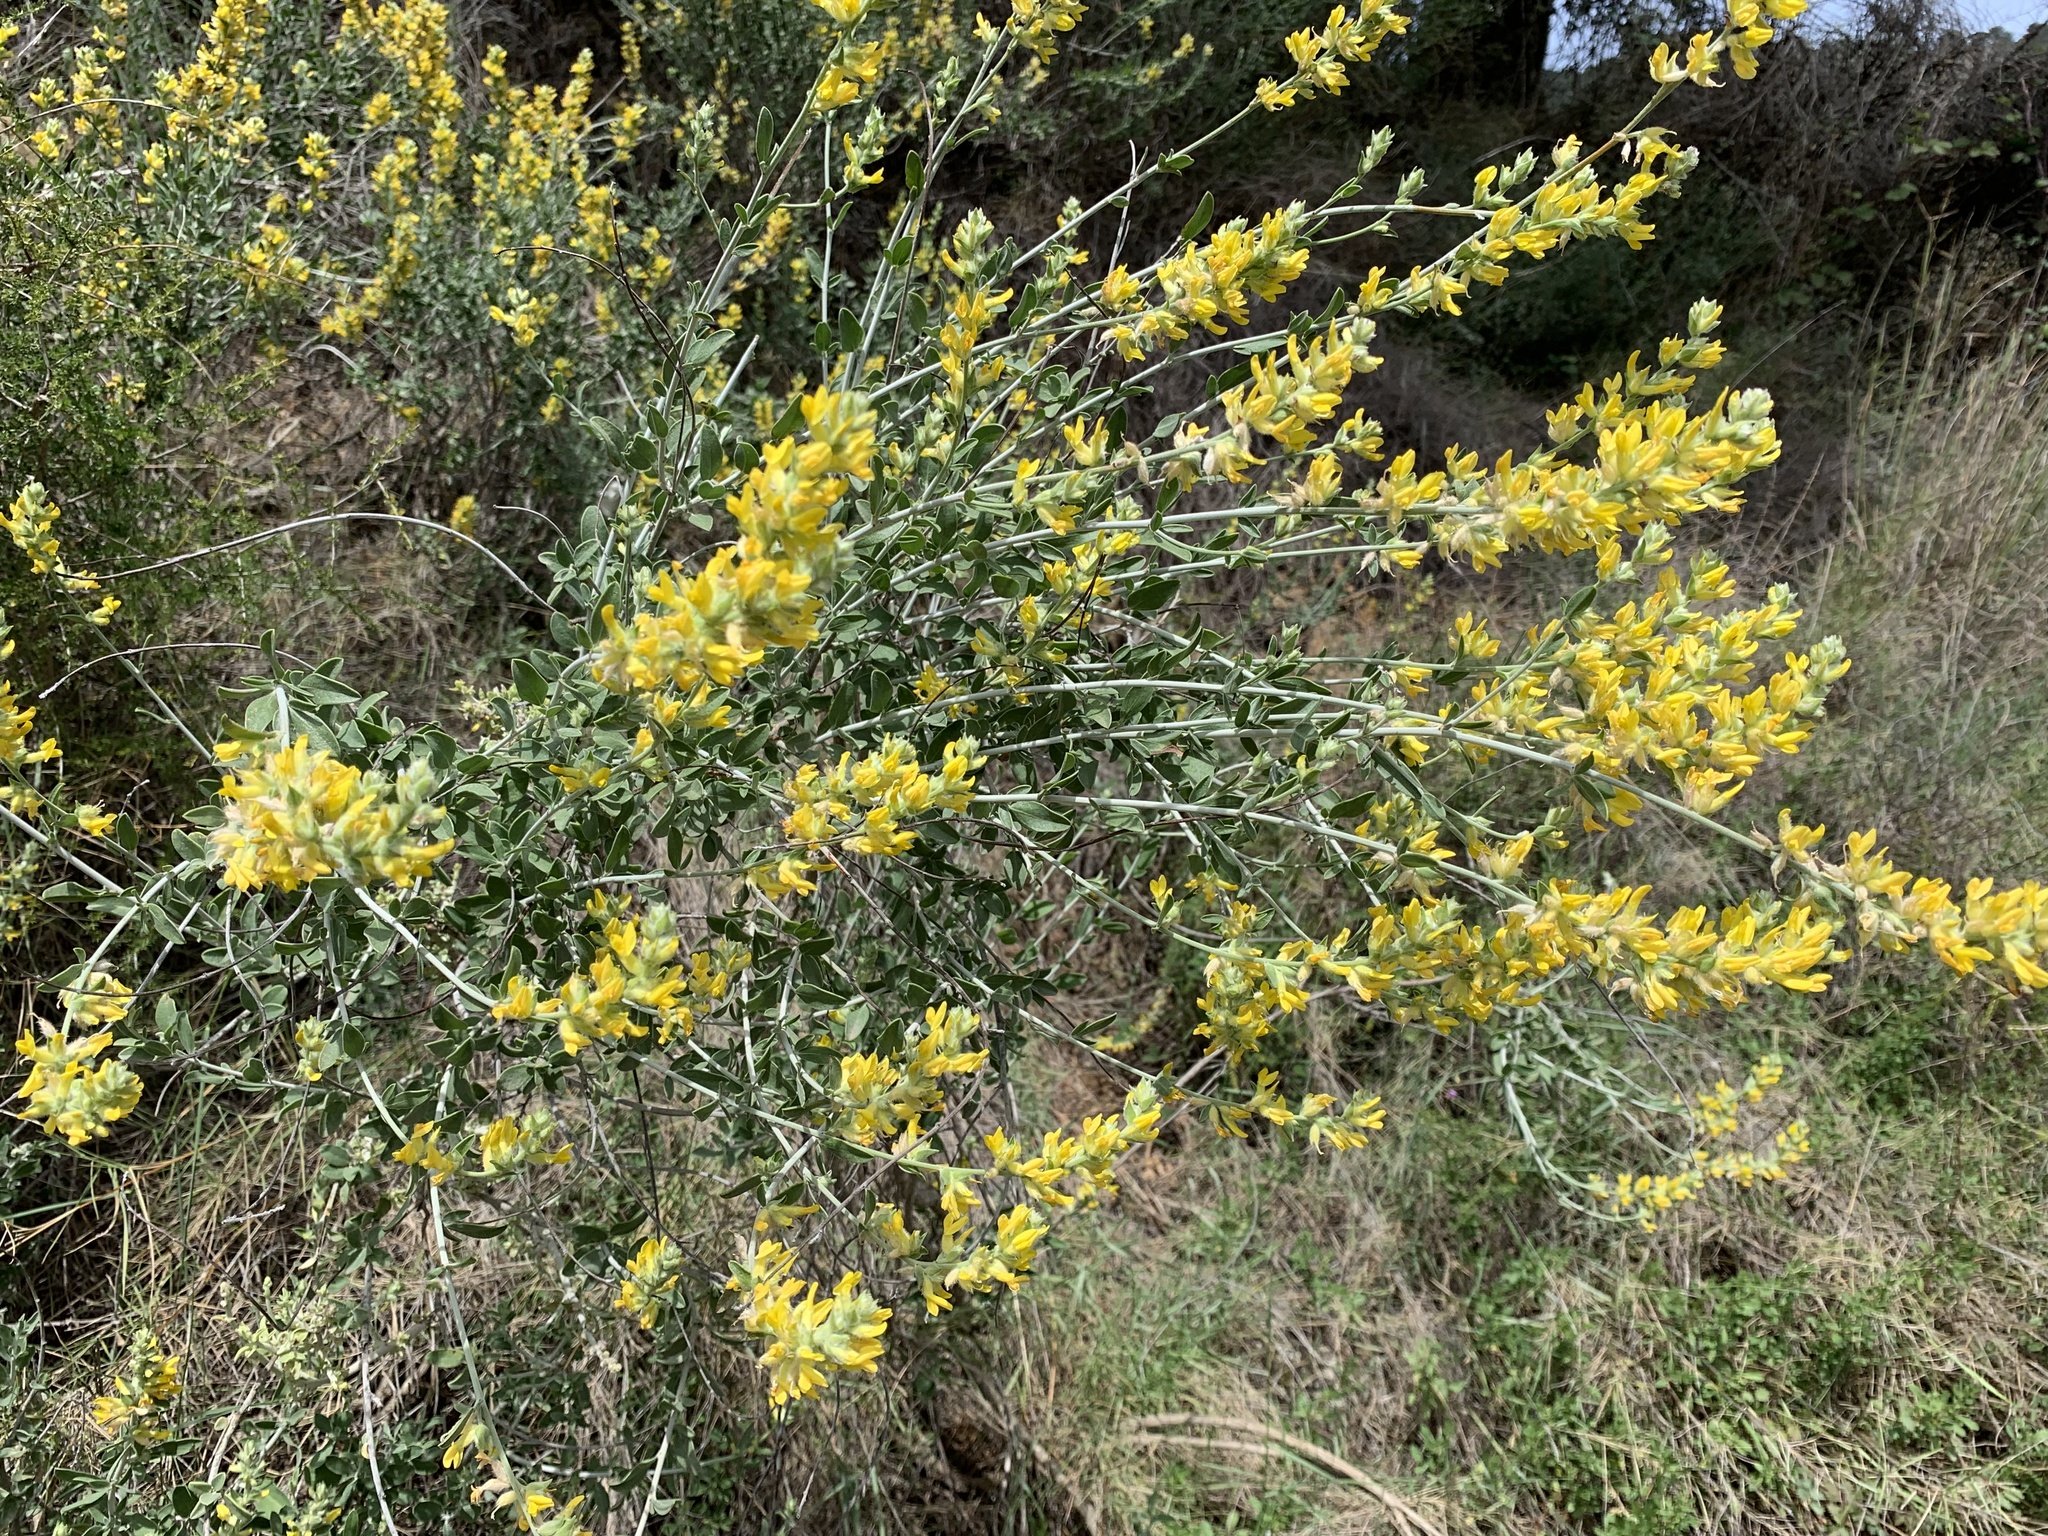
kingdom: Plantae
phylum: Tracheophyta
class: Magnoliopsida
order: Fabales
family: Fabaceae
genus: Anthyllis
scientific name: Anthyllis cytisoides
